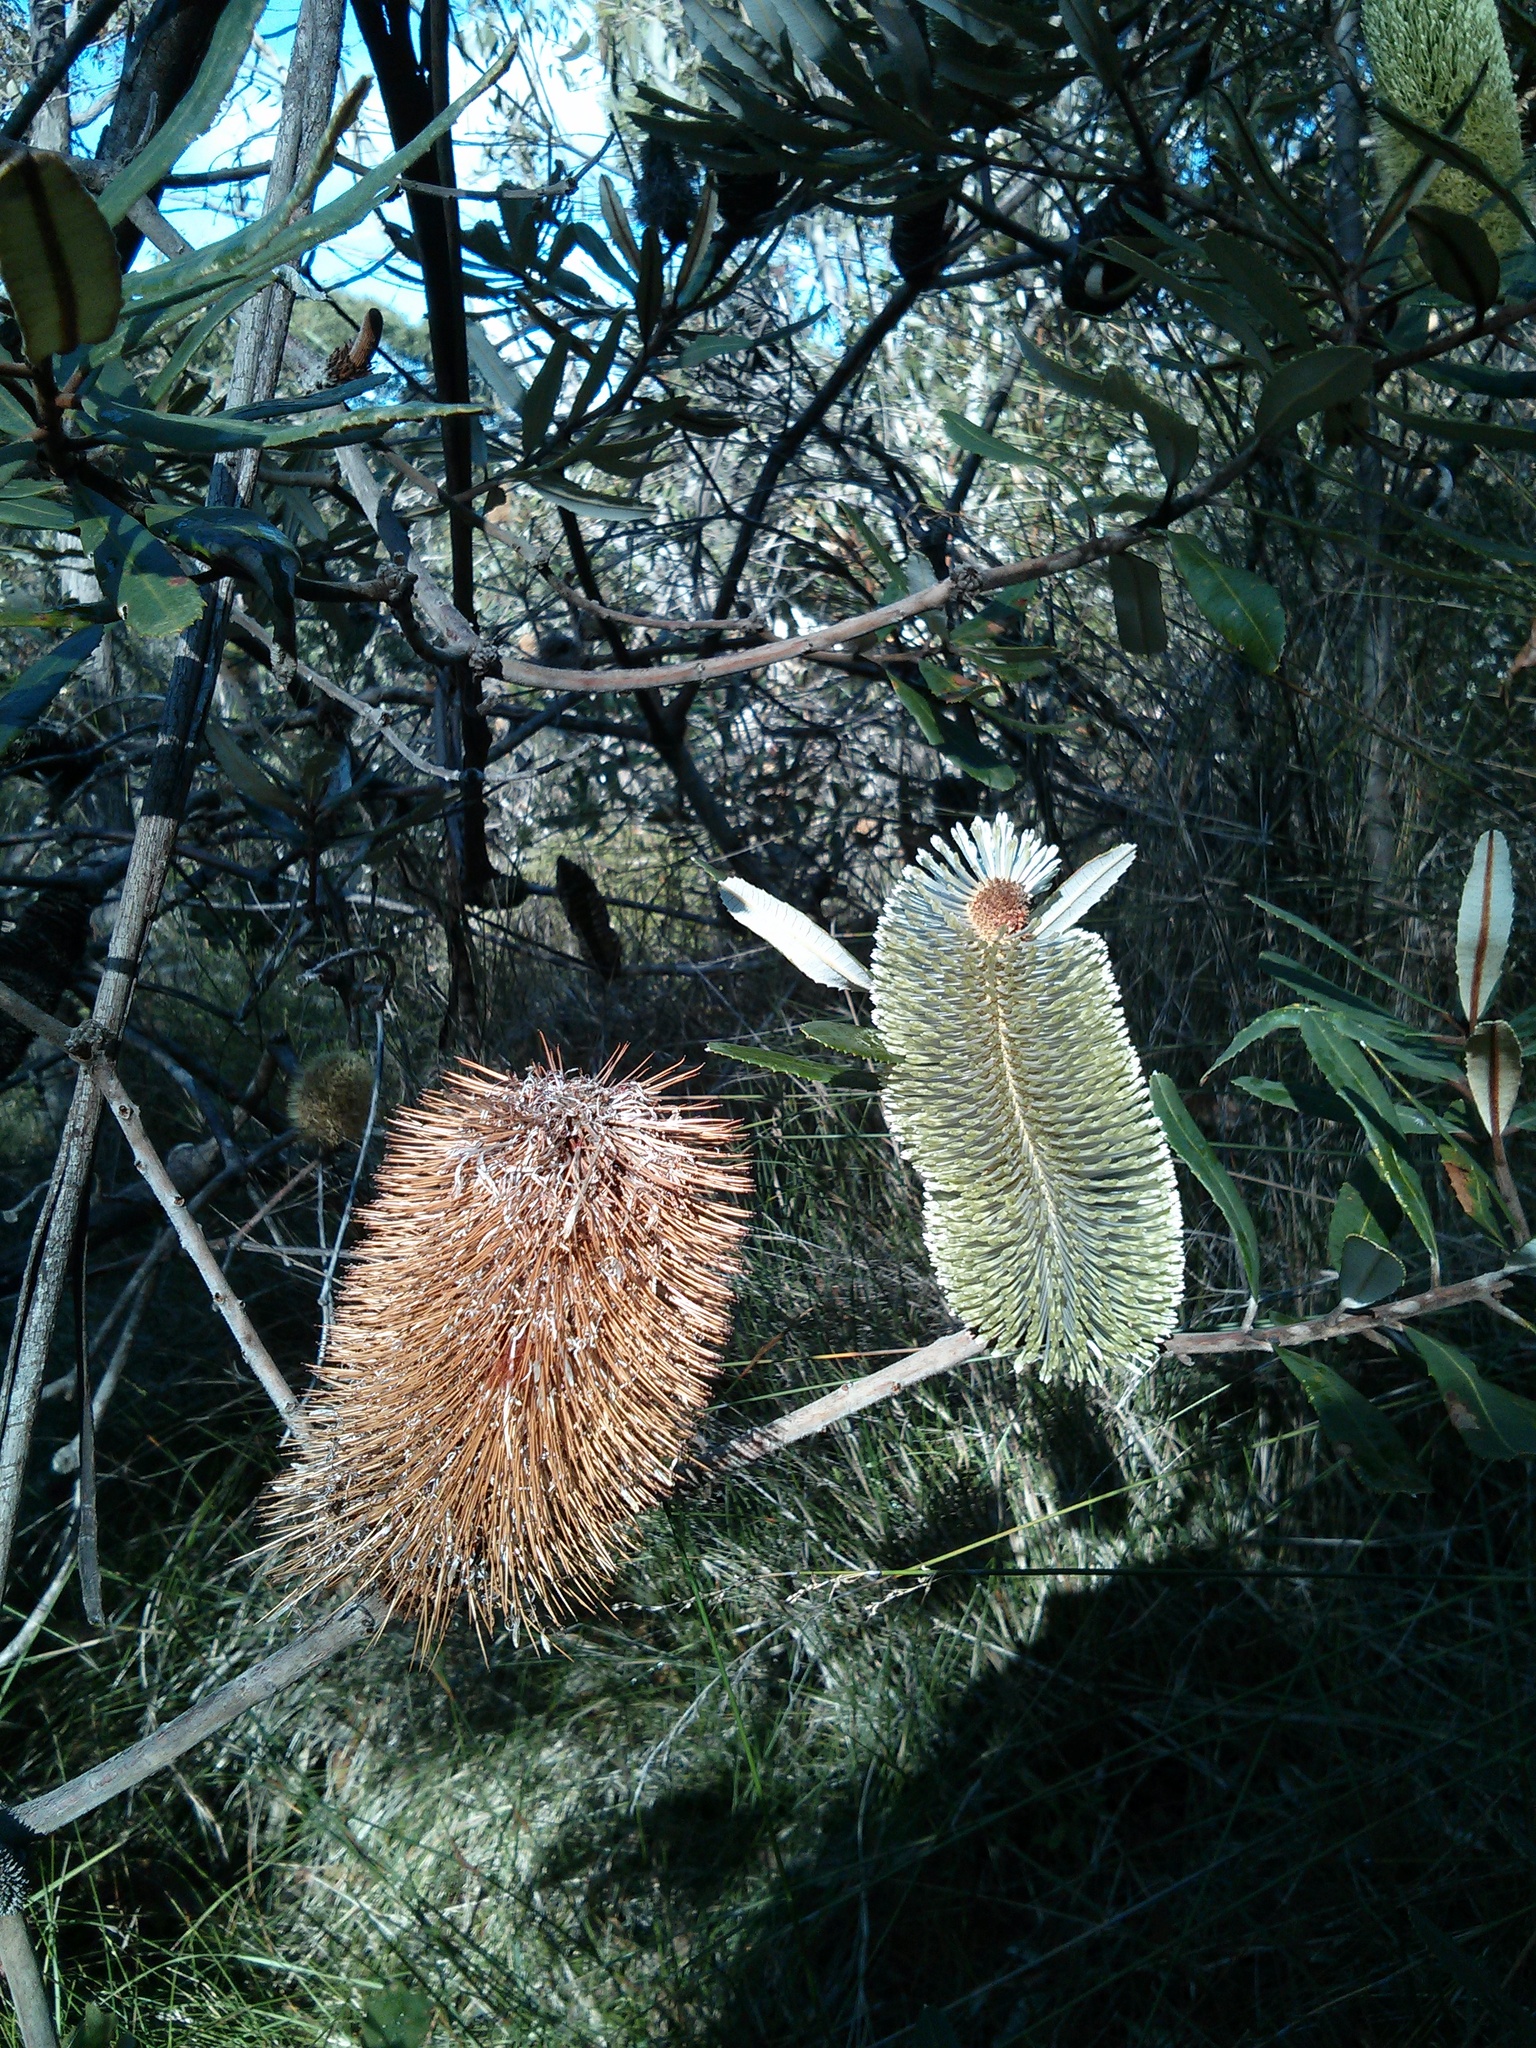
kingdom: Plantae
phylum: Tracheophyta
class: Magnoliopsida
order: Proteales
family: Proteaceae
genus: Banksia
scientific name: Banksia integrifolia
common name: White-honeysuckle
